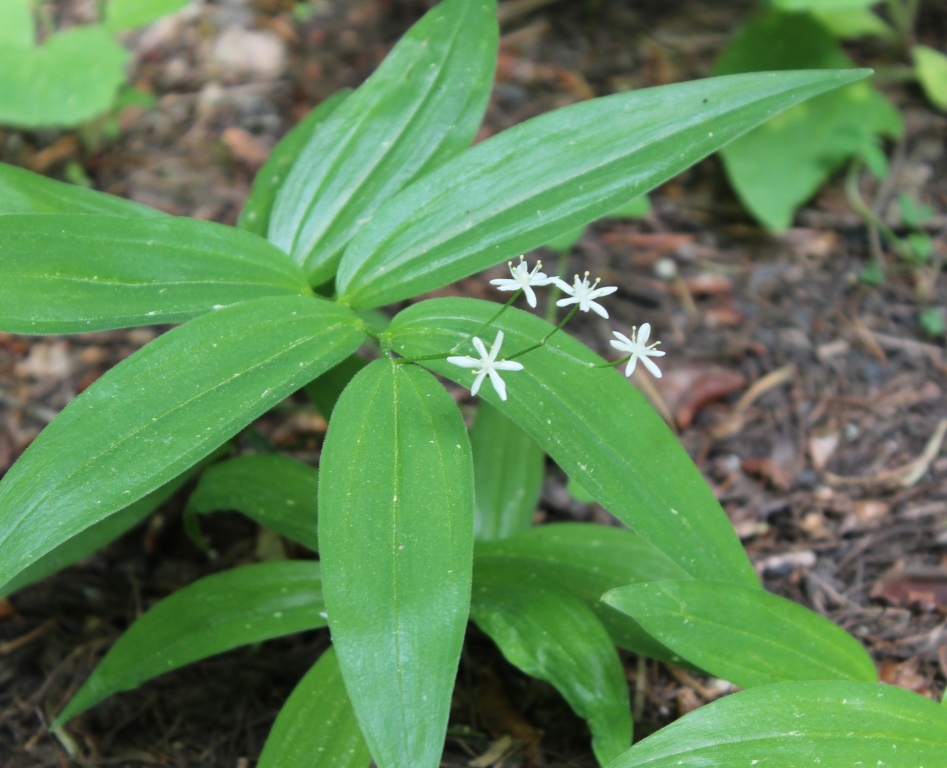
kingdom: Plantae
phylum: Tracheophyta
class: Liliopsida
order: Asparagales
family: Asparagaceae
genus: Maianthemum
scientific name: Maianthemum stellatum
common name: Little false solomon's seal
